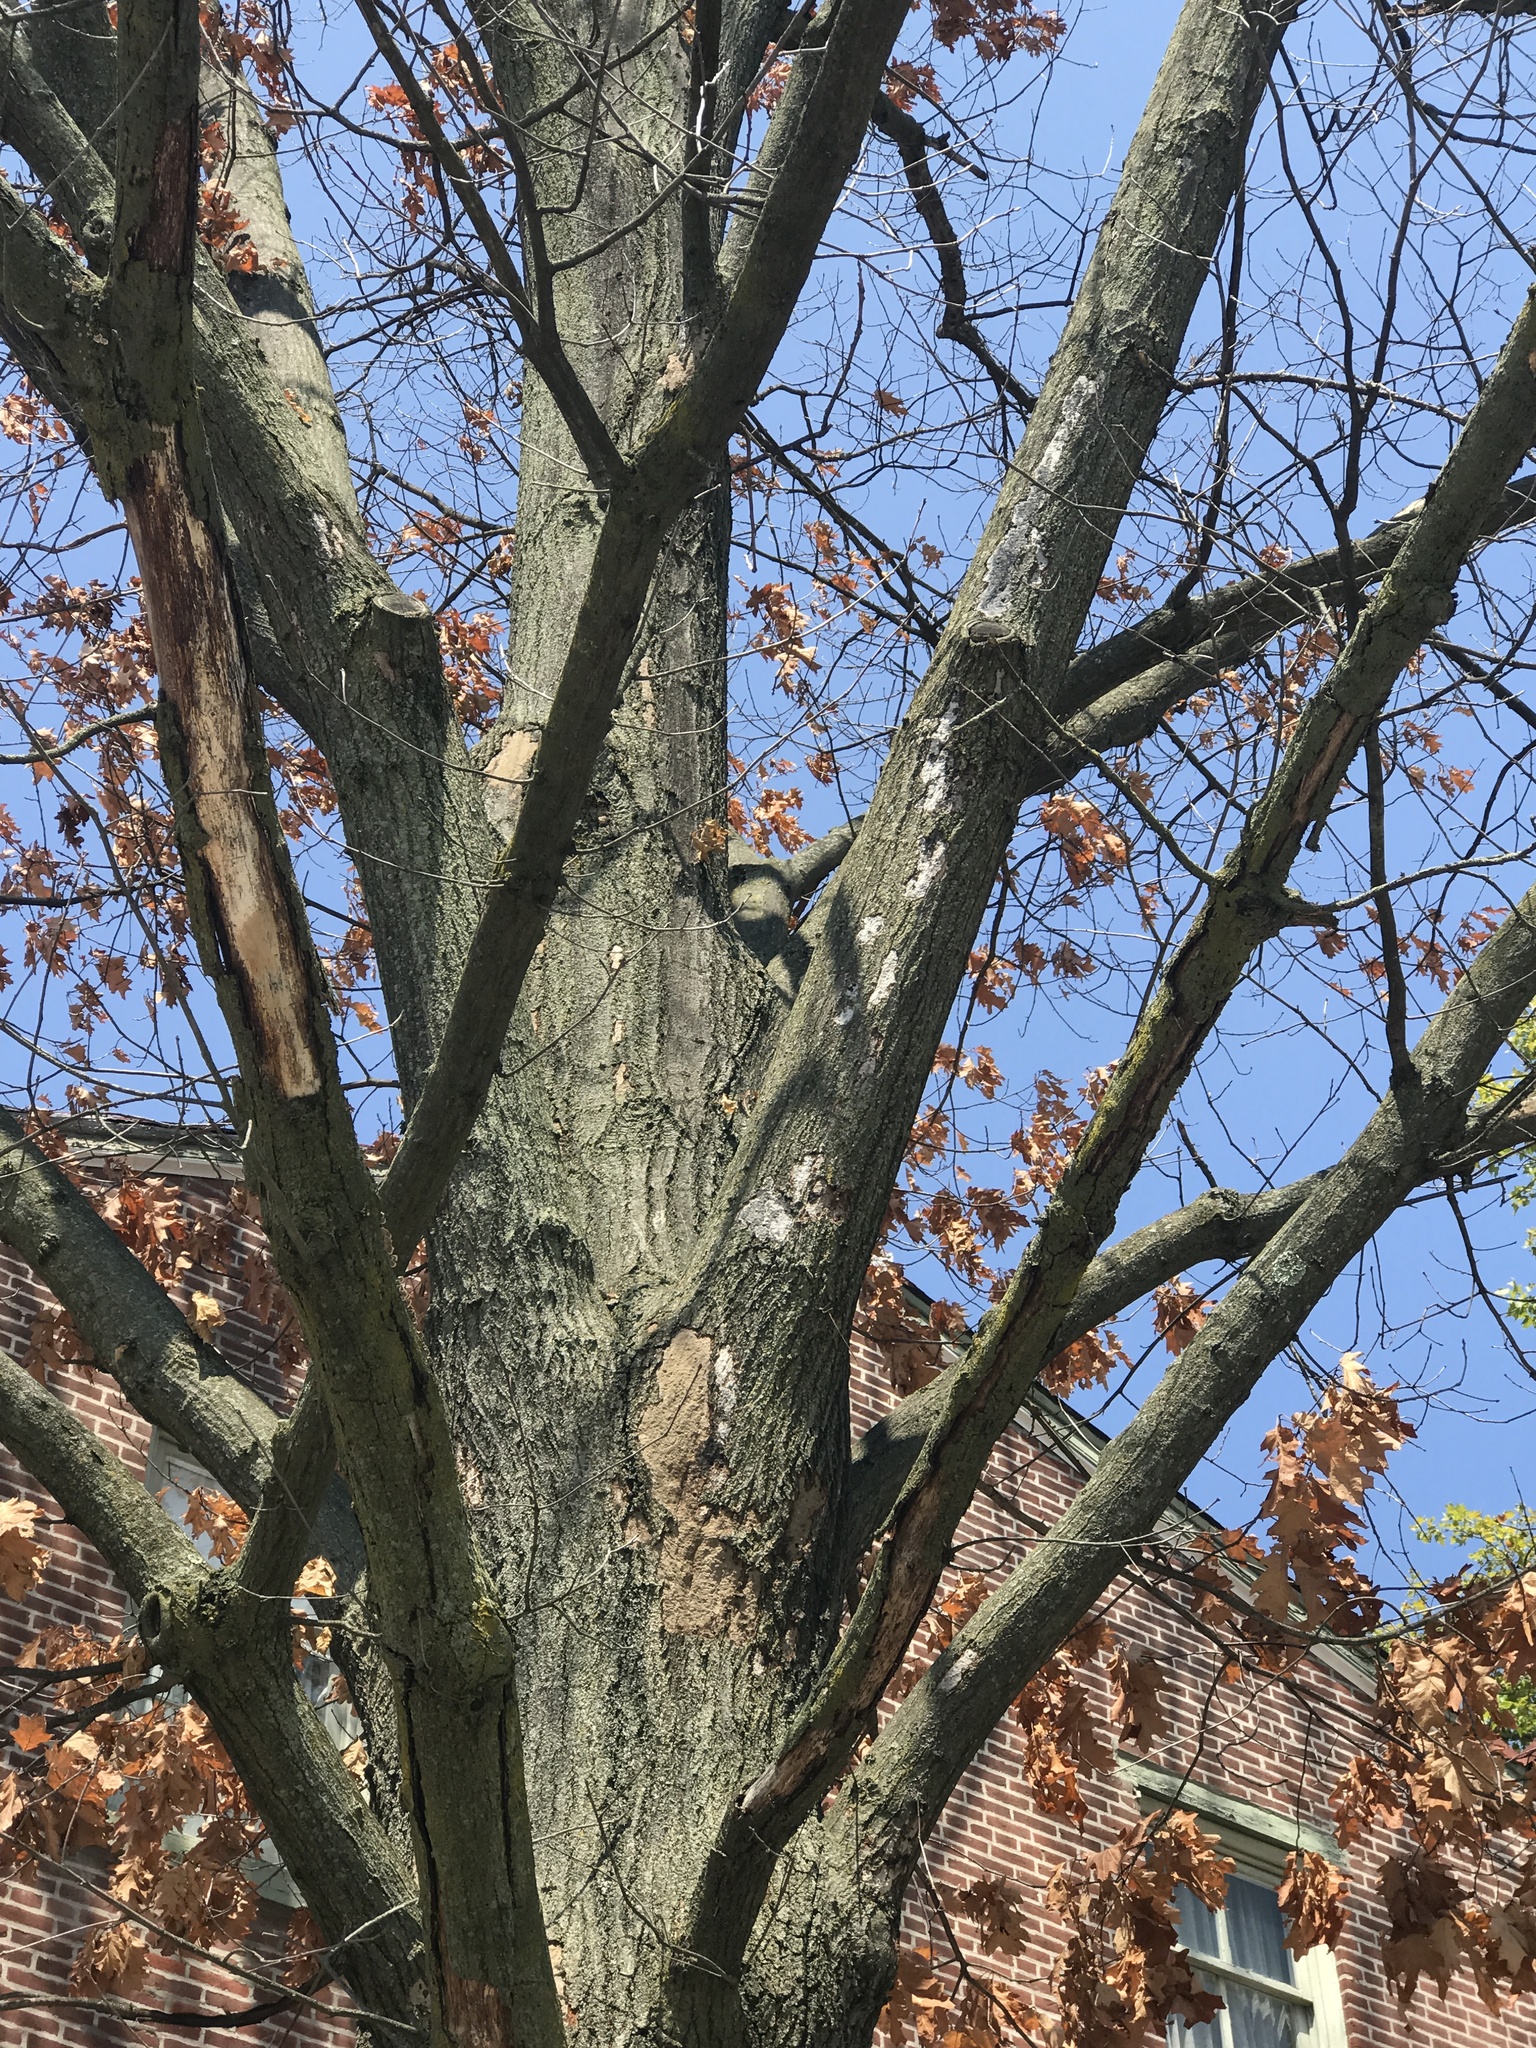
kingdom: Fungi
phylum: Ascomycota
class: Sordariomycetes
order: Xylariales
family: Graphostromataceae
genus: Biscogniauxia
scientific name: Biscogniauxia atropunctata
